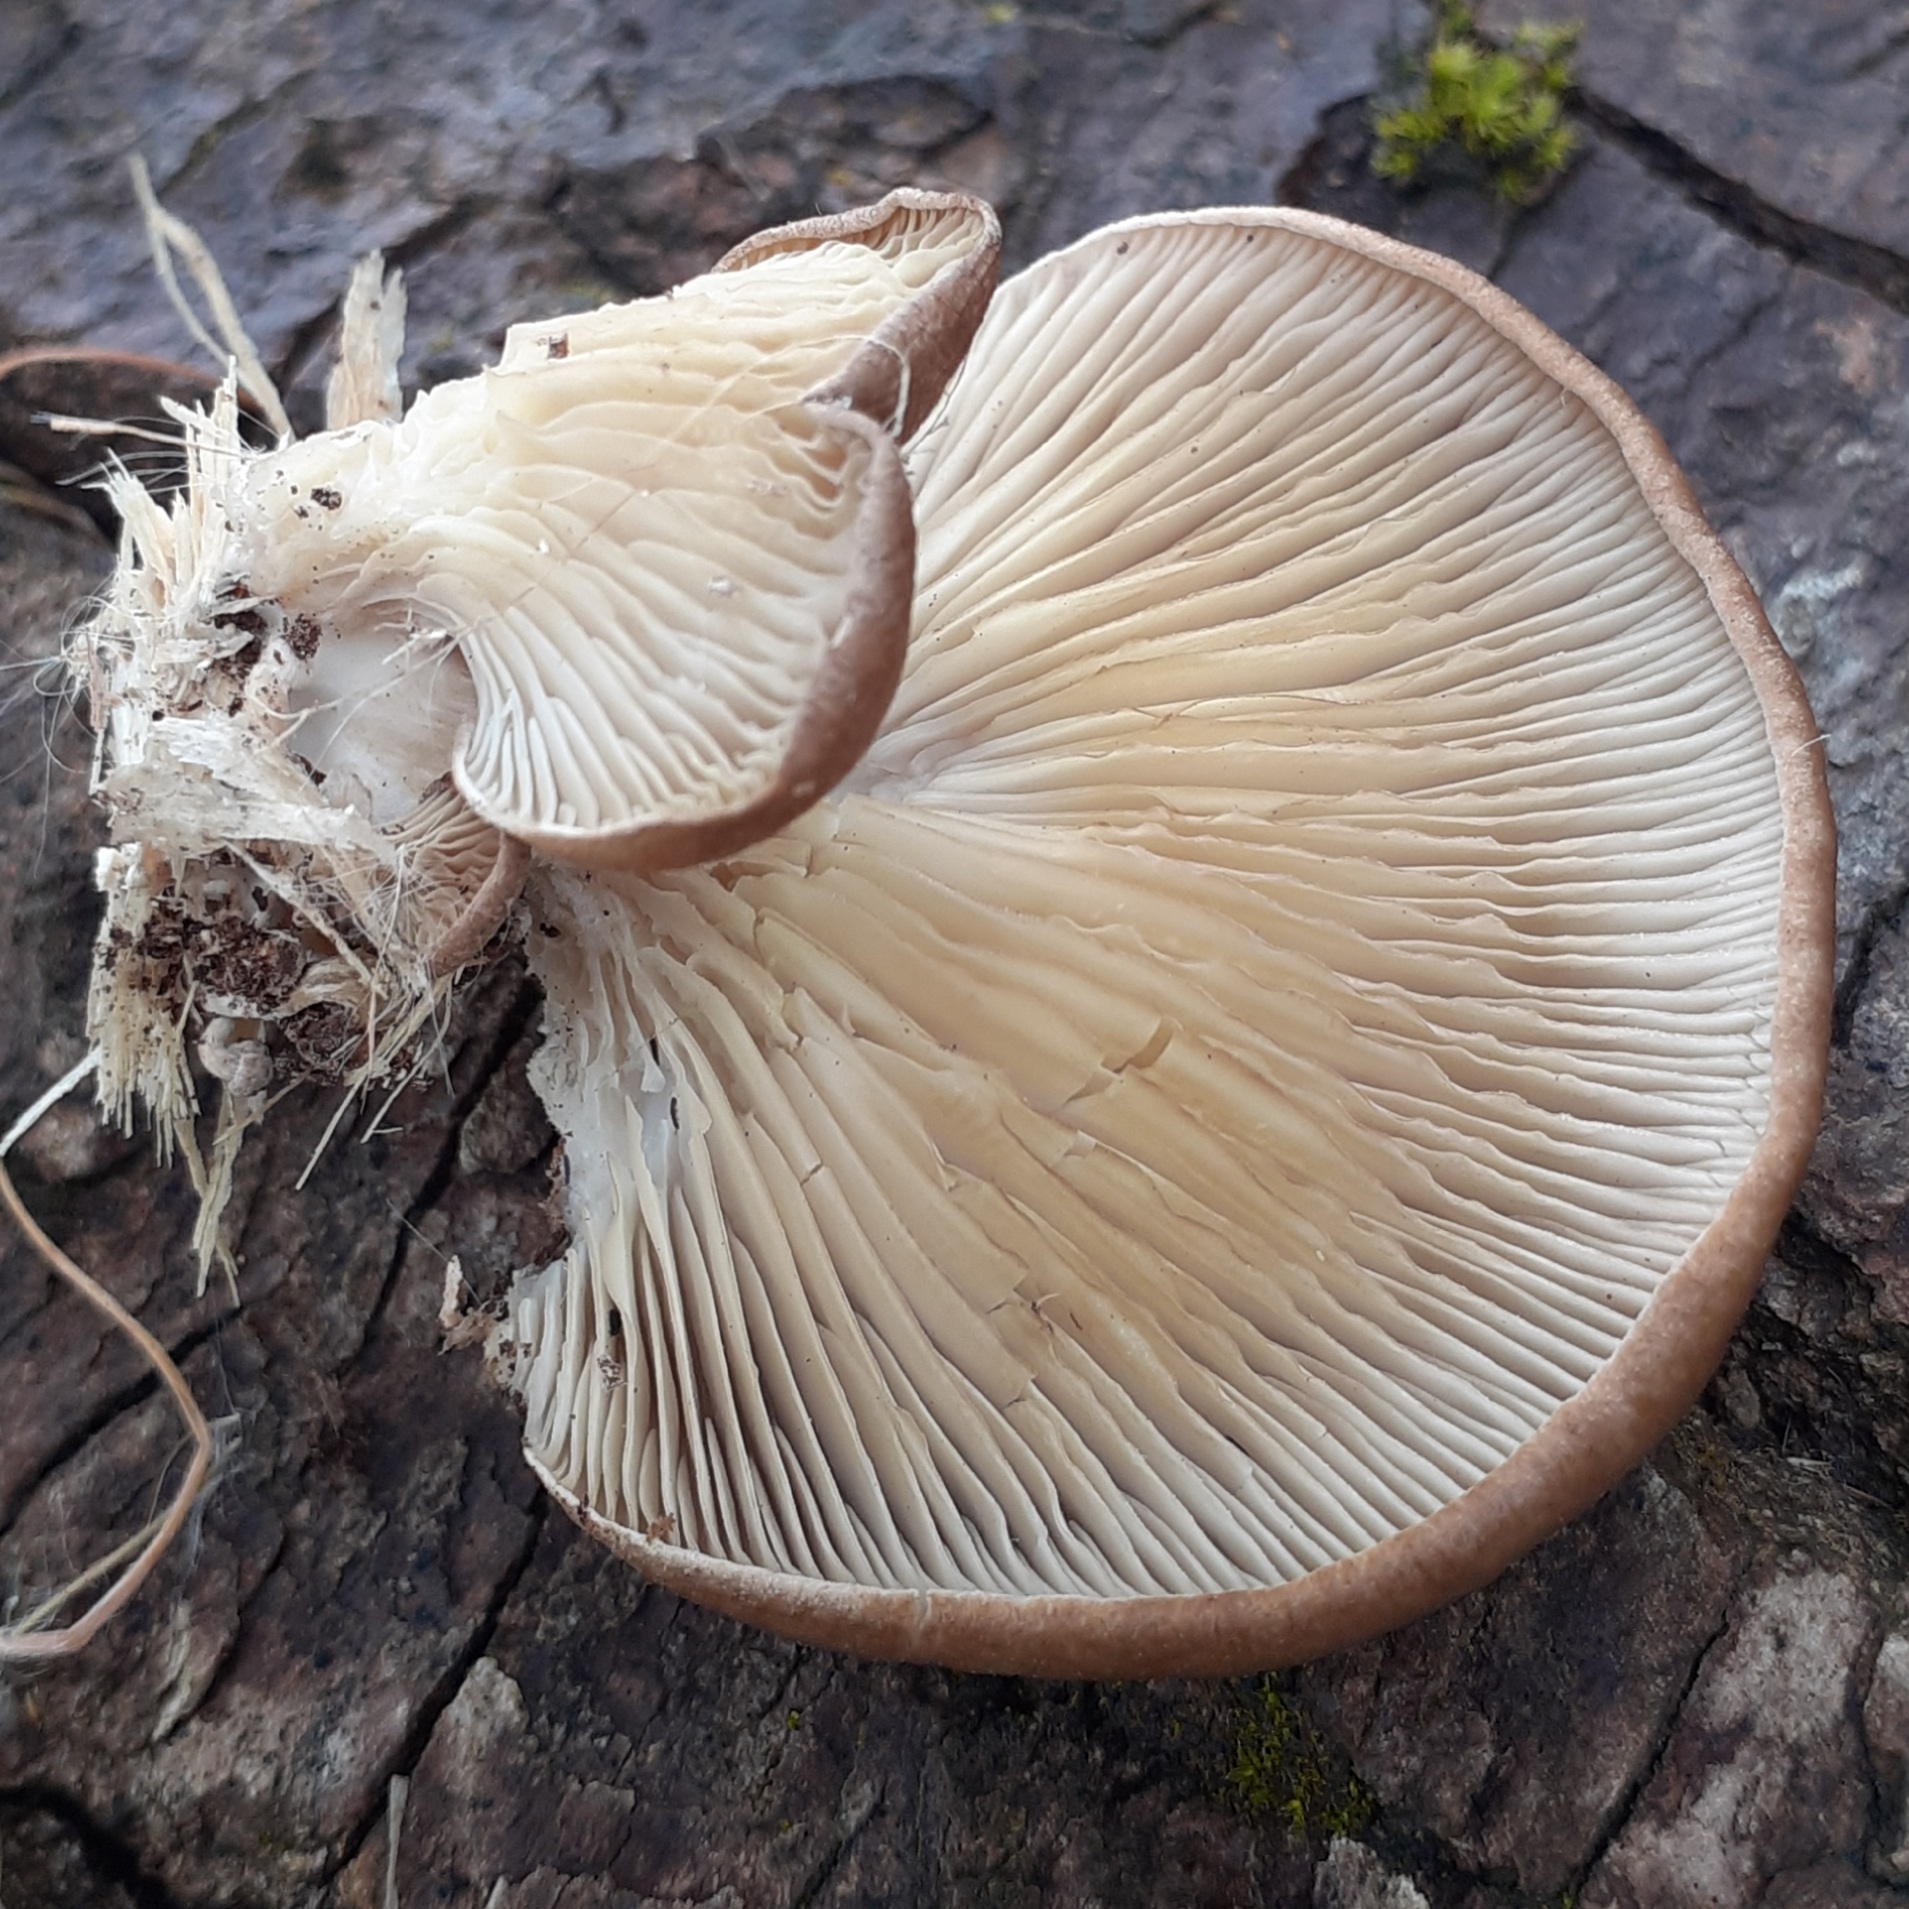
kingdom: Fungi
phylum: Basidiomycota
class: Agaricomycetes
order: Agaricales
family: Pleurotaceae
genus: Pleurotus
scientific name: Pleurotus ostreatus
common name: Oyster mushroom
